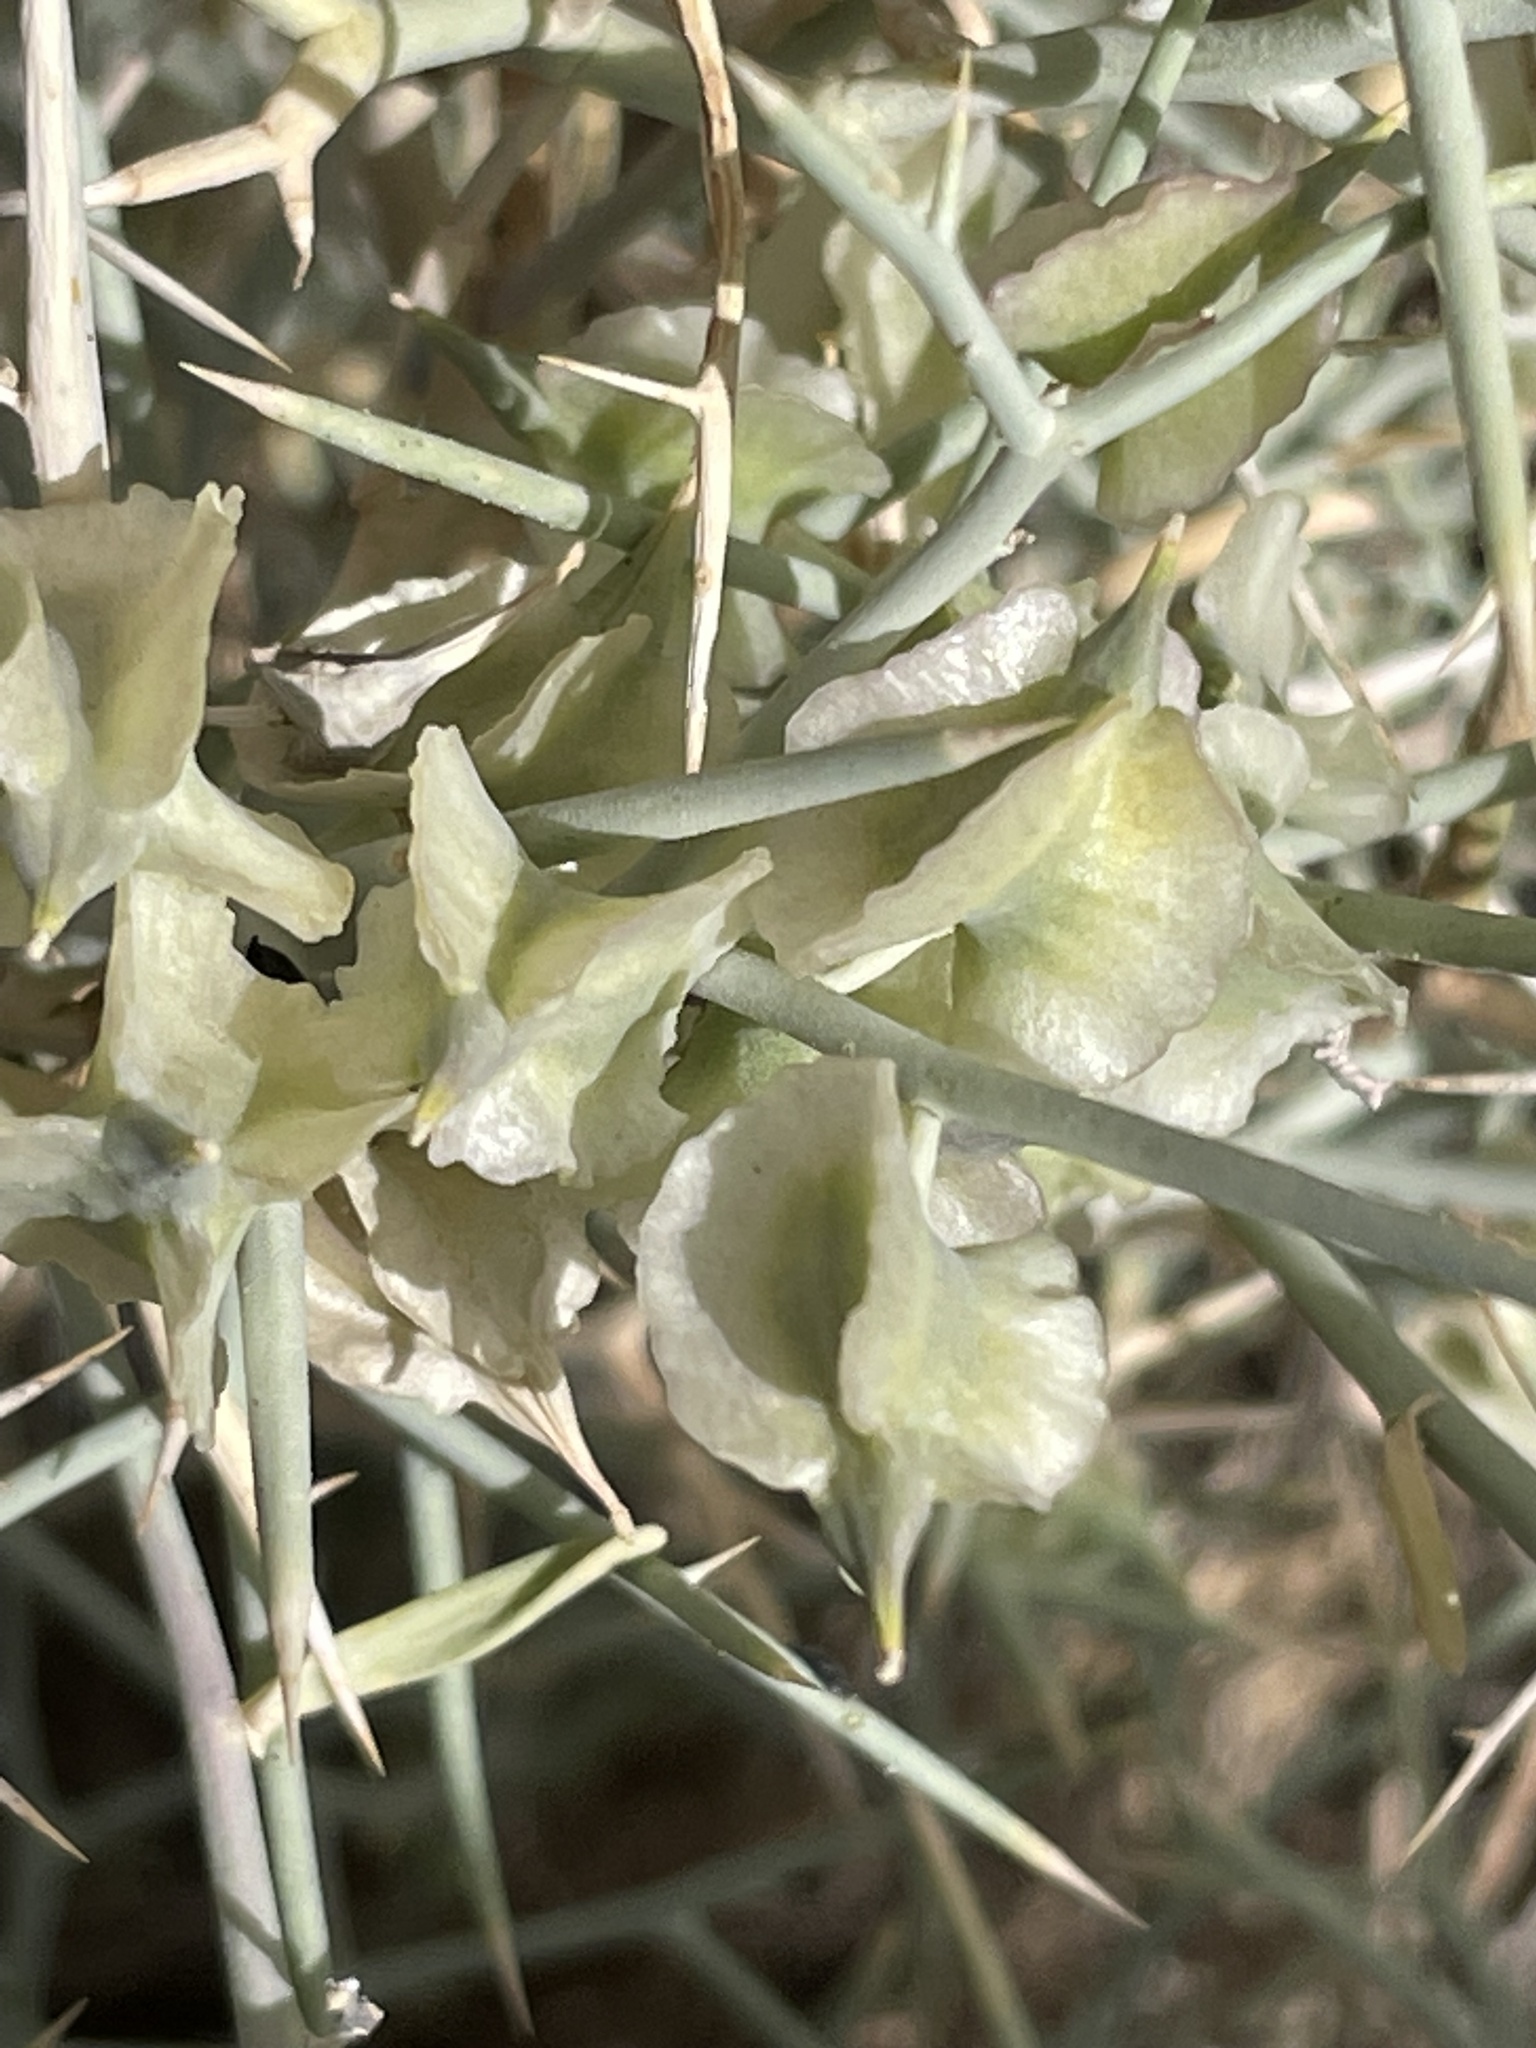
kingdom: Plantae
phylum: Tracheophyta
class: Magnoliopsida
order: Brassicales
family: Brassicaceae
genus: Zilla
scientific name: Zilla macroptera
